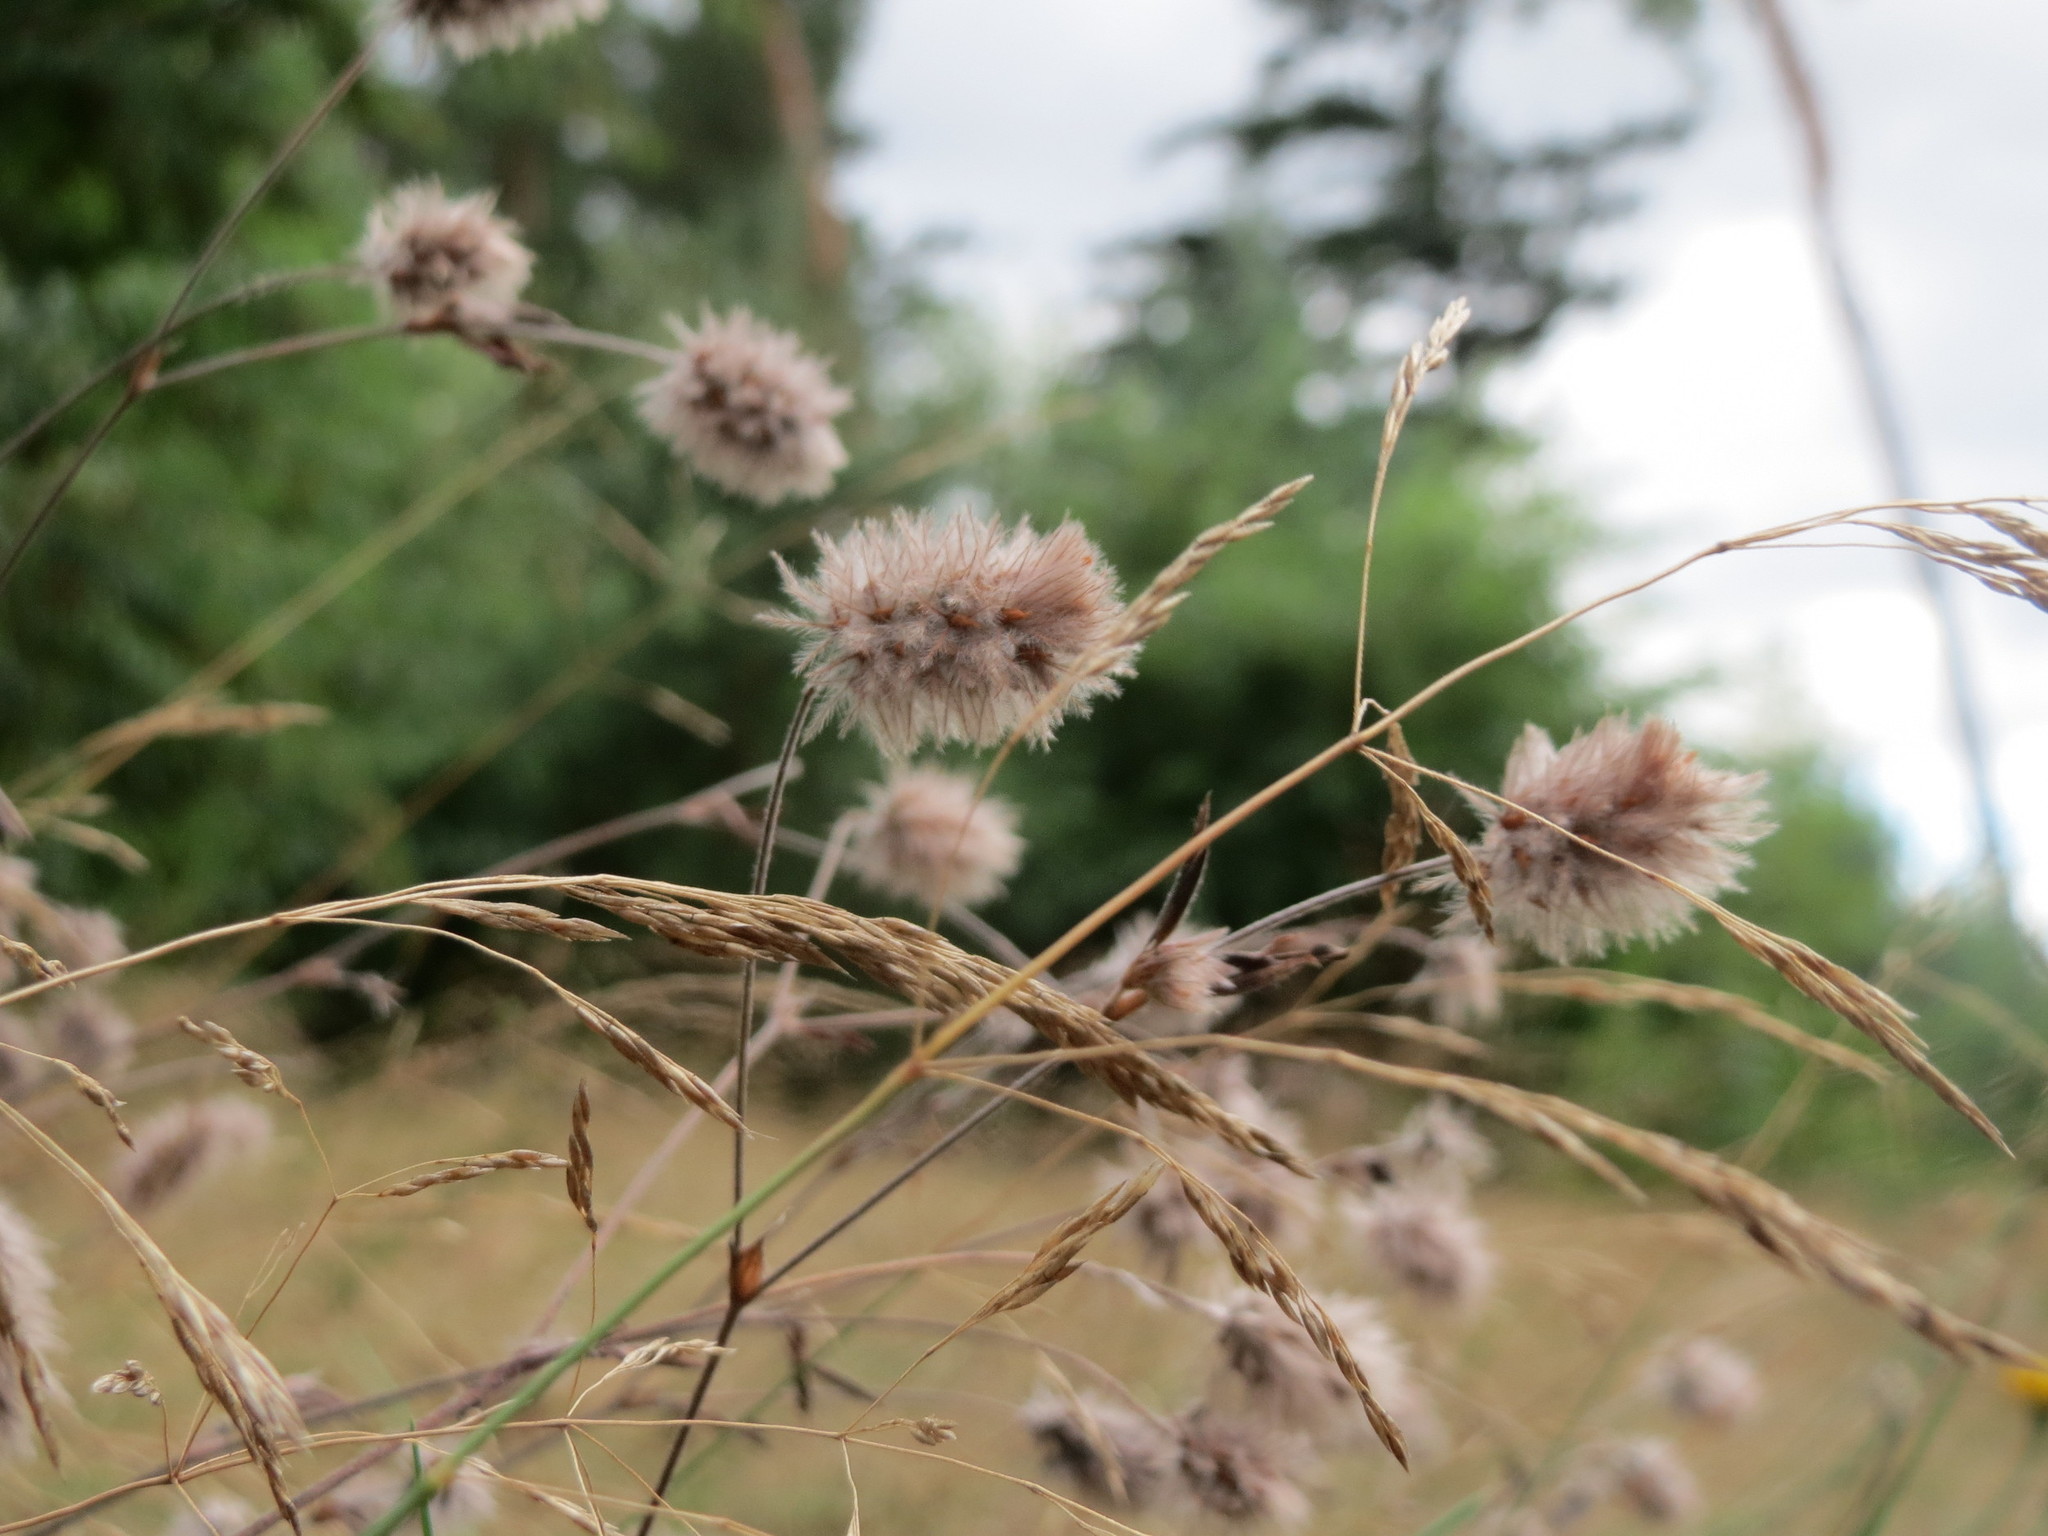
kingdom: Plantae
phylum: Tracheophyta
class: Magnoliopsida
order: Fabales
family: Fabaceae
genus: Trifolium
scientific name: Trifolium arvense
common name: Hare's-foot clover
